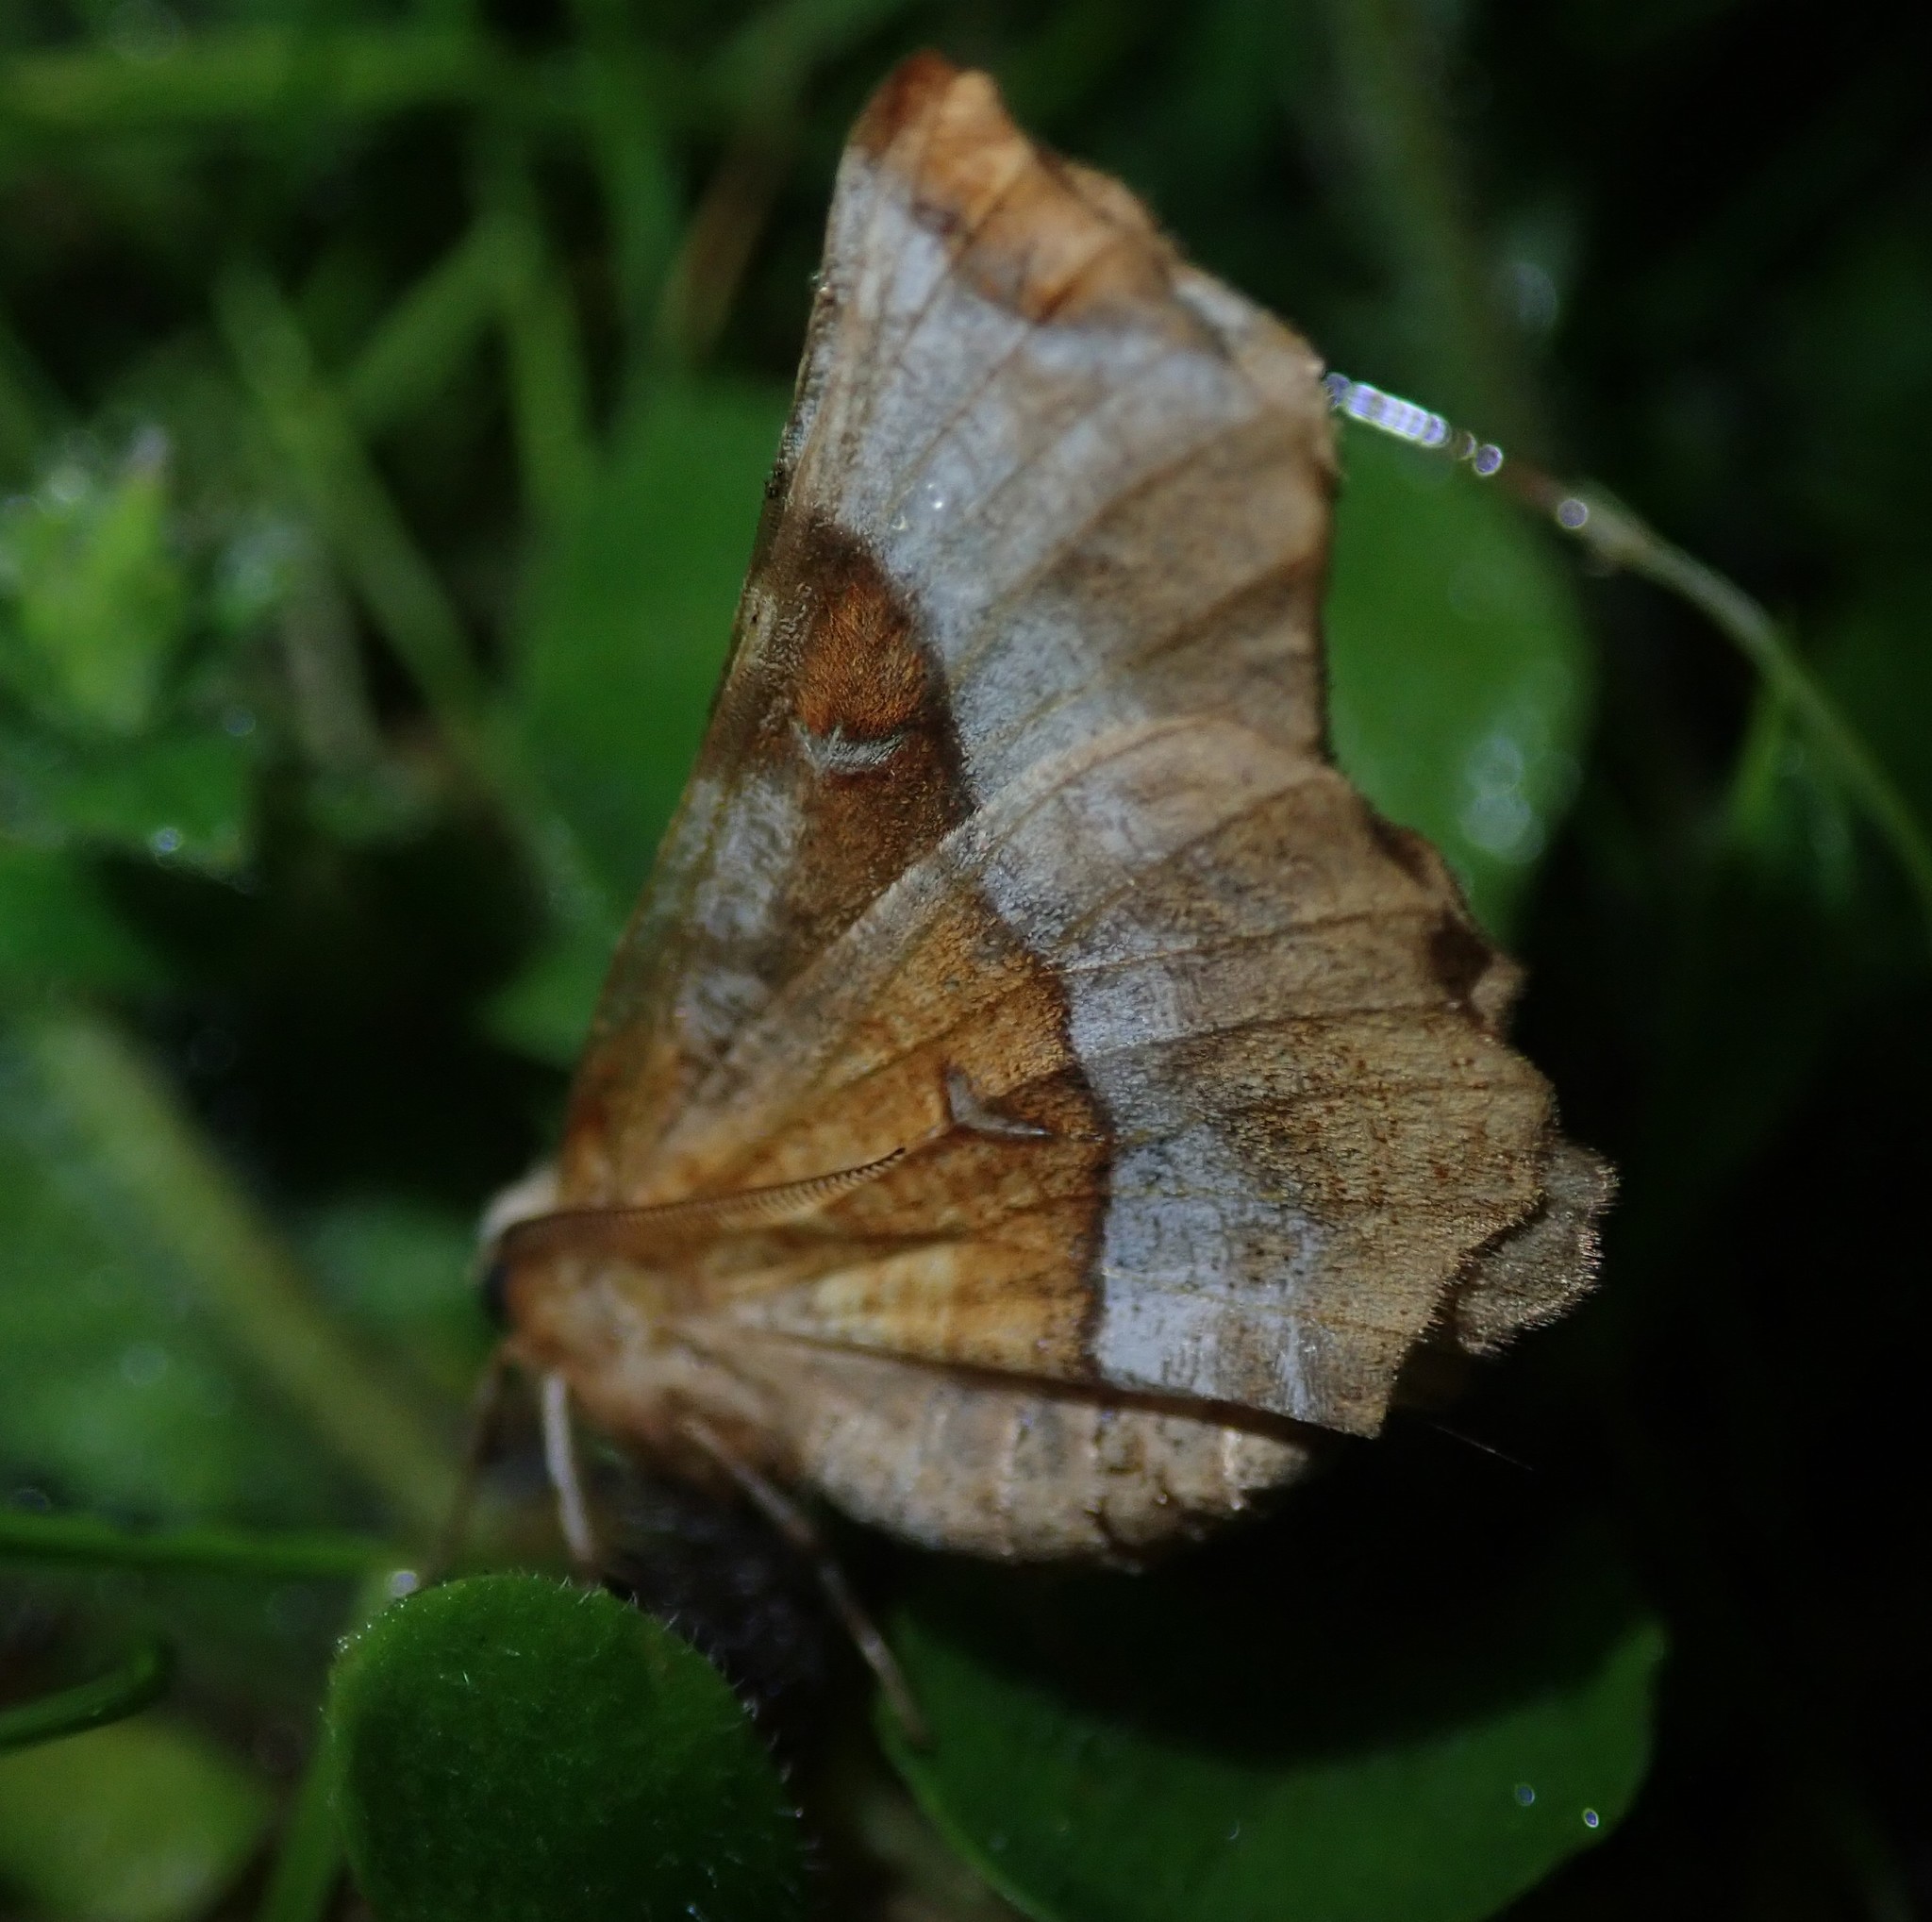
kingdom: Animalia
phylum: Arthropoda
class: Insecta
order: Lepidoptera
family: Geometridae
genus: Selenia
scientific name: Selenia tetralunaria
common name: Purple thorn
